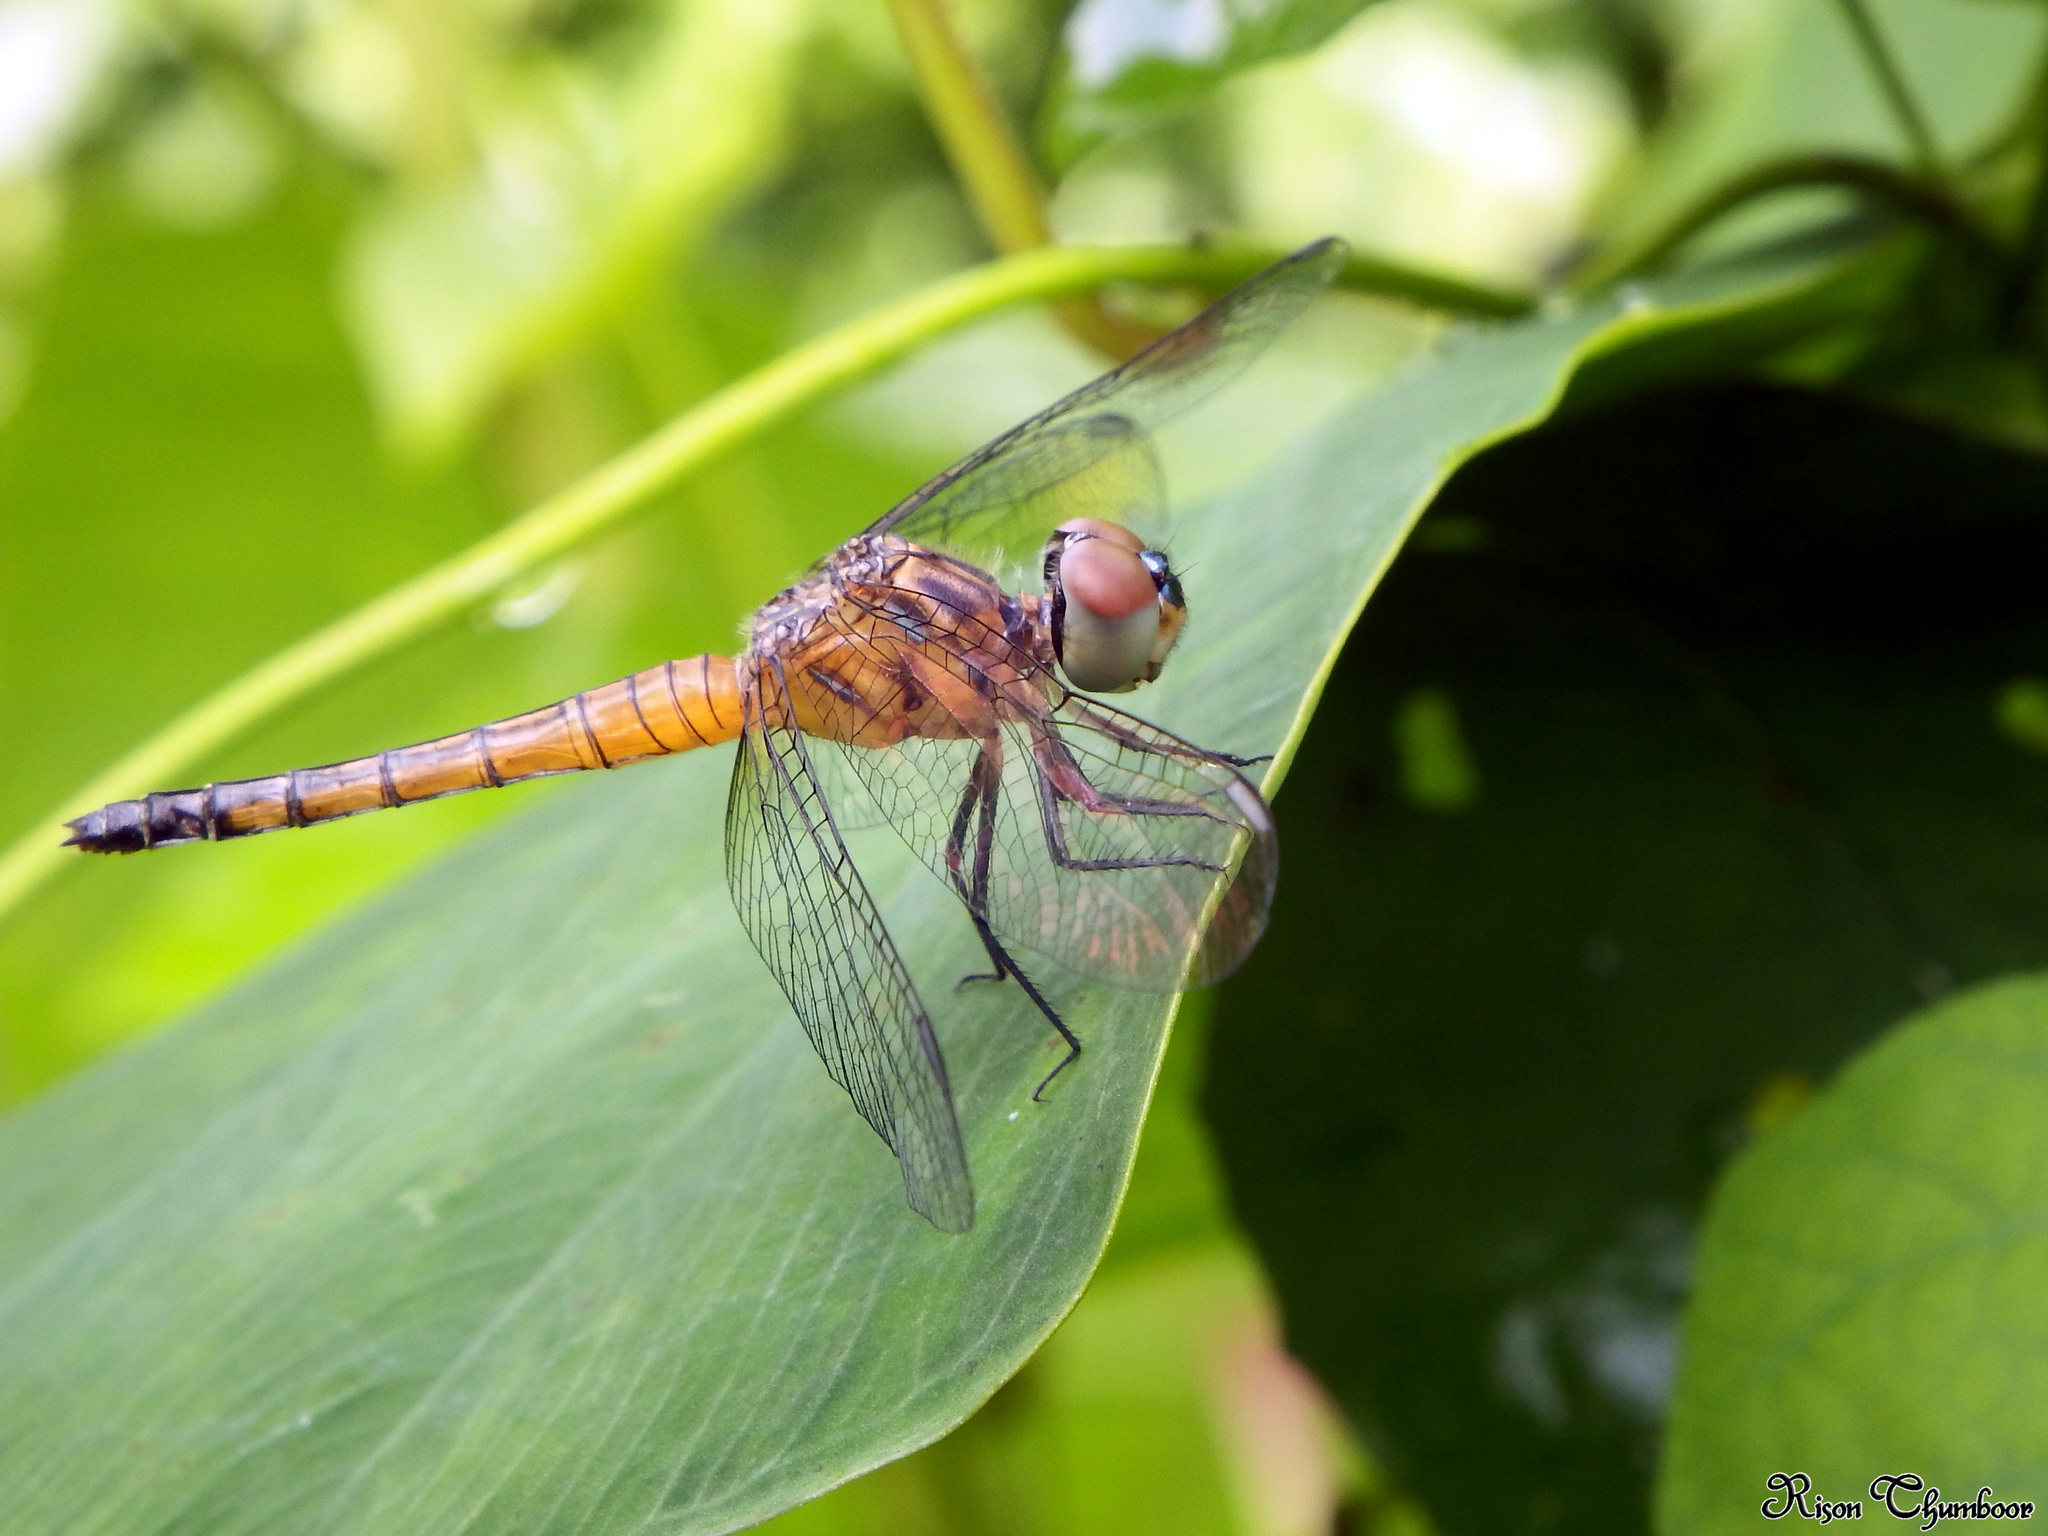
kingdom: Animalia
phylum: Arthropoda
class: Insecta
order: Odonata
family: Libellulidae
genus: Brachydiplax
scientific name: Brachydiplax chalybea
